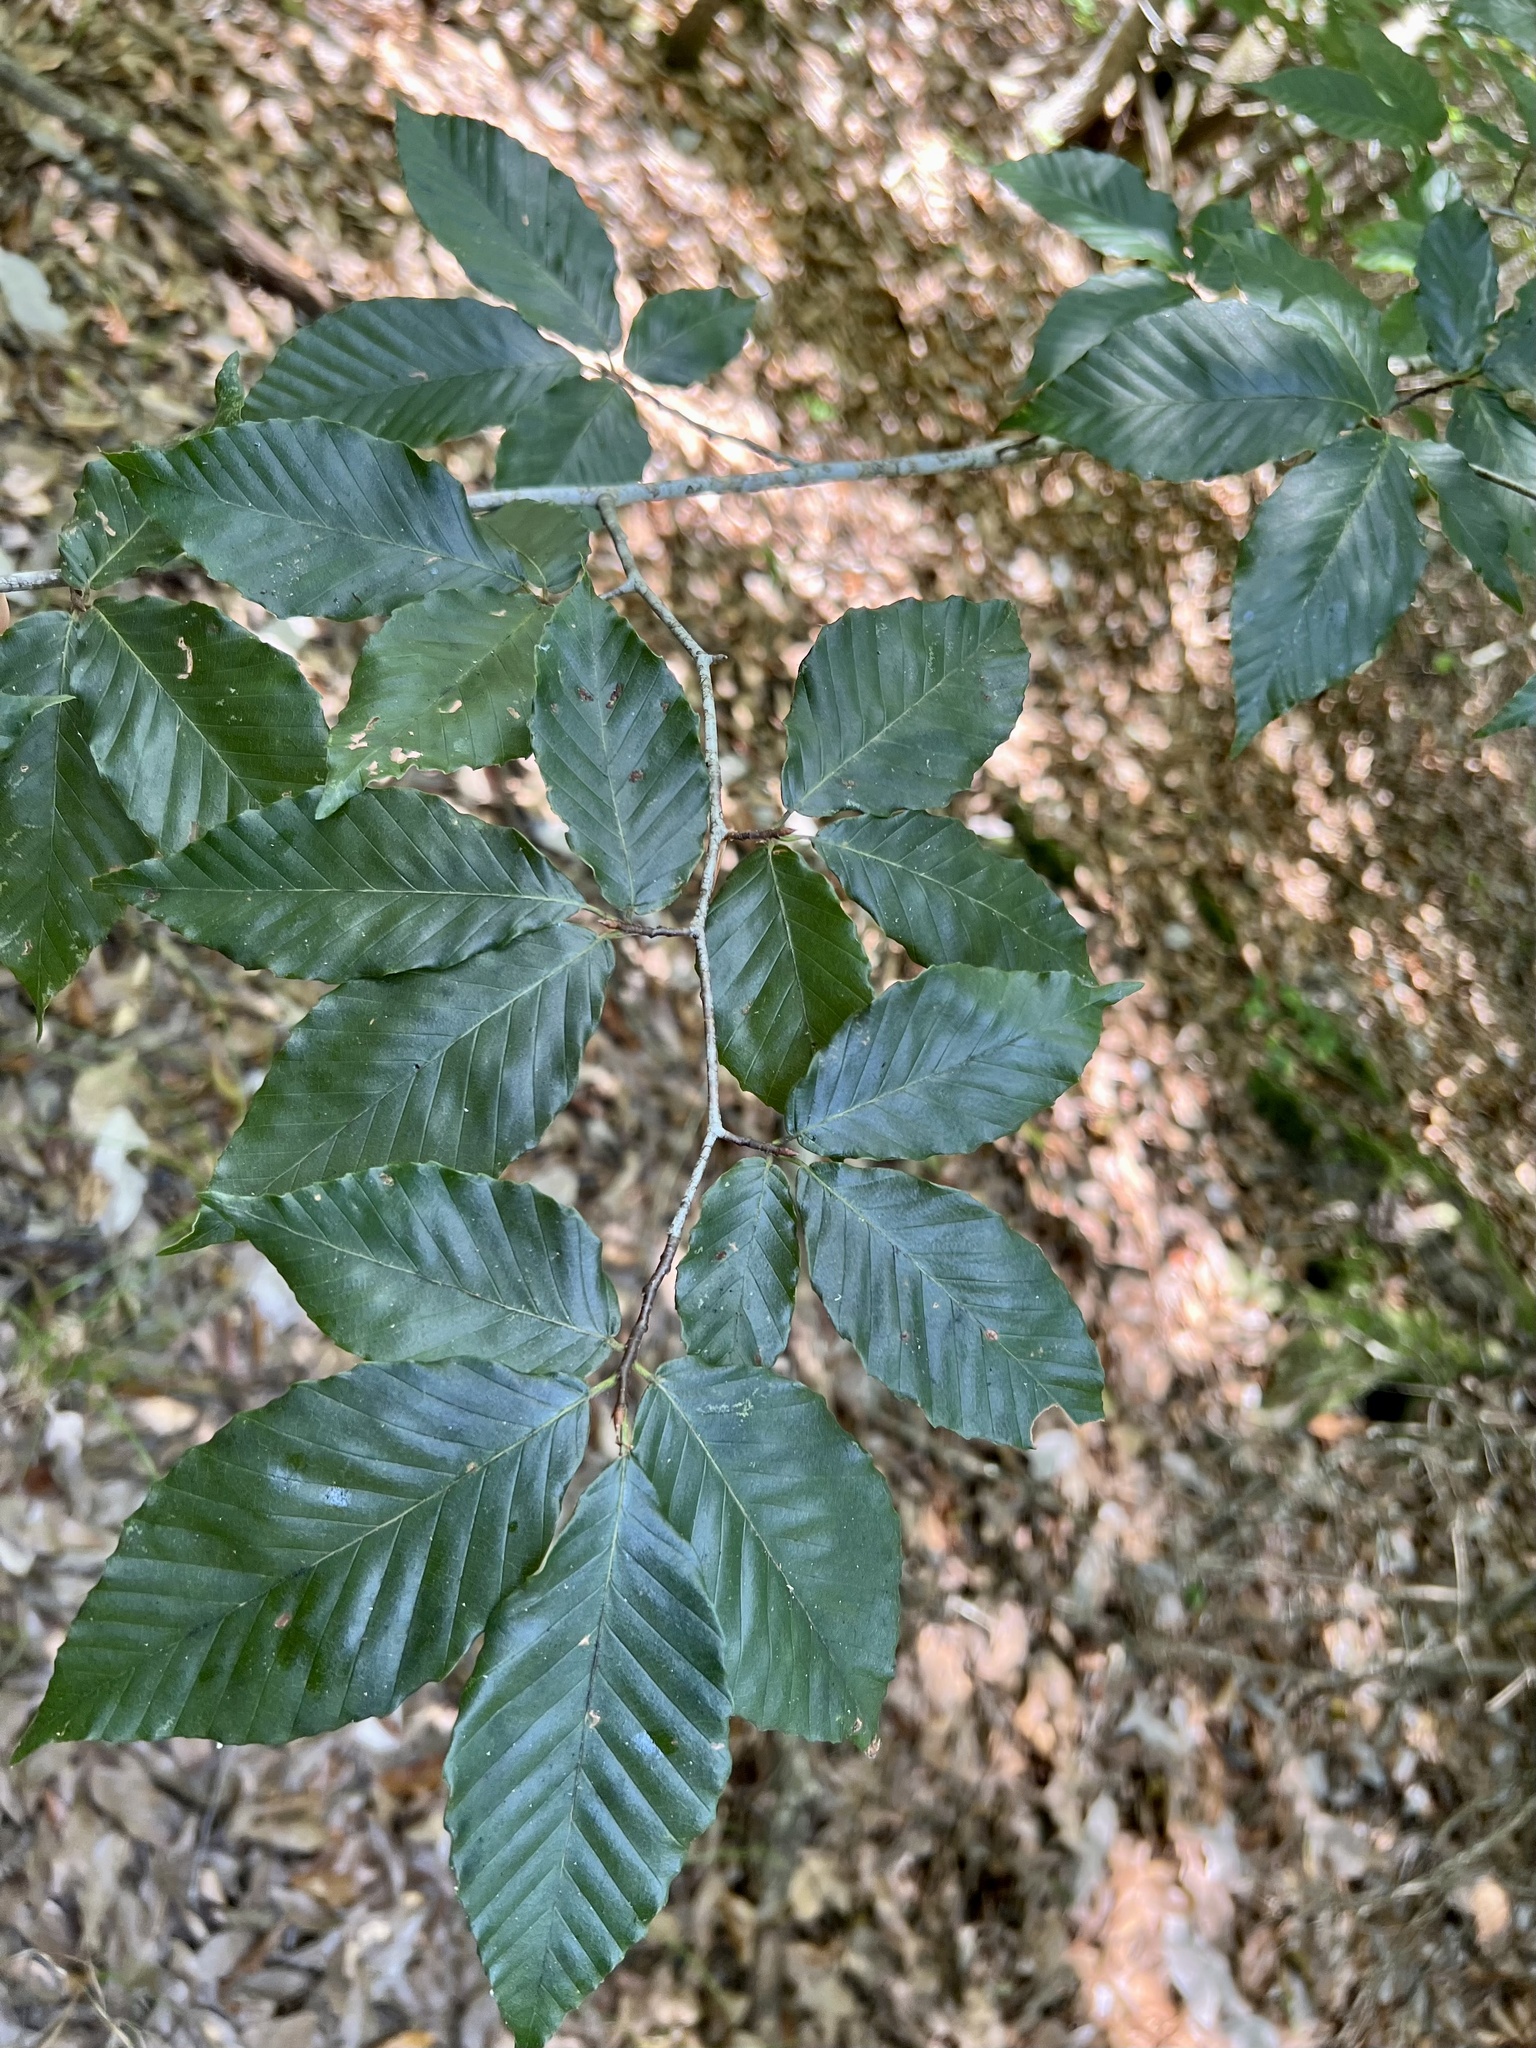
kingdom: Plantae
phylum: Tracheophyta
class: Magnoliopsida
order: Fagales
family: Fagaceae
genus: Fagus
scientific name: Fagus grandifolia
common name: American beech
